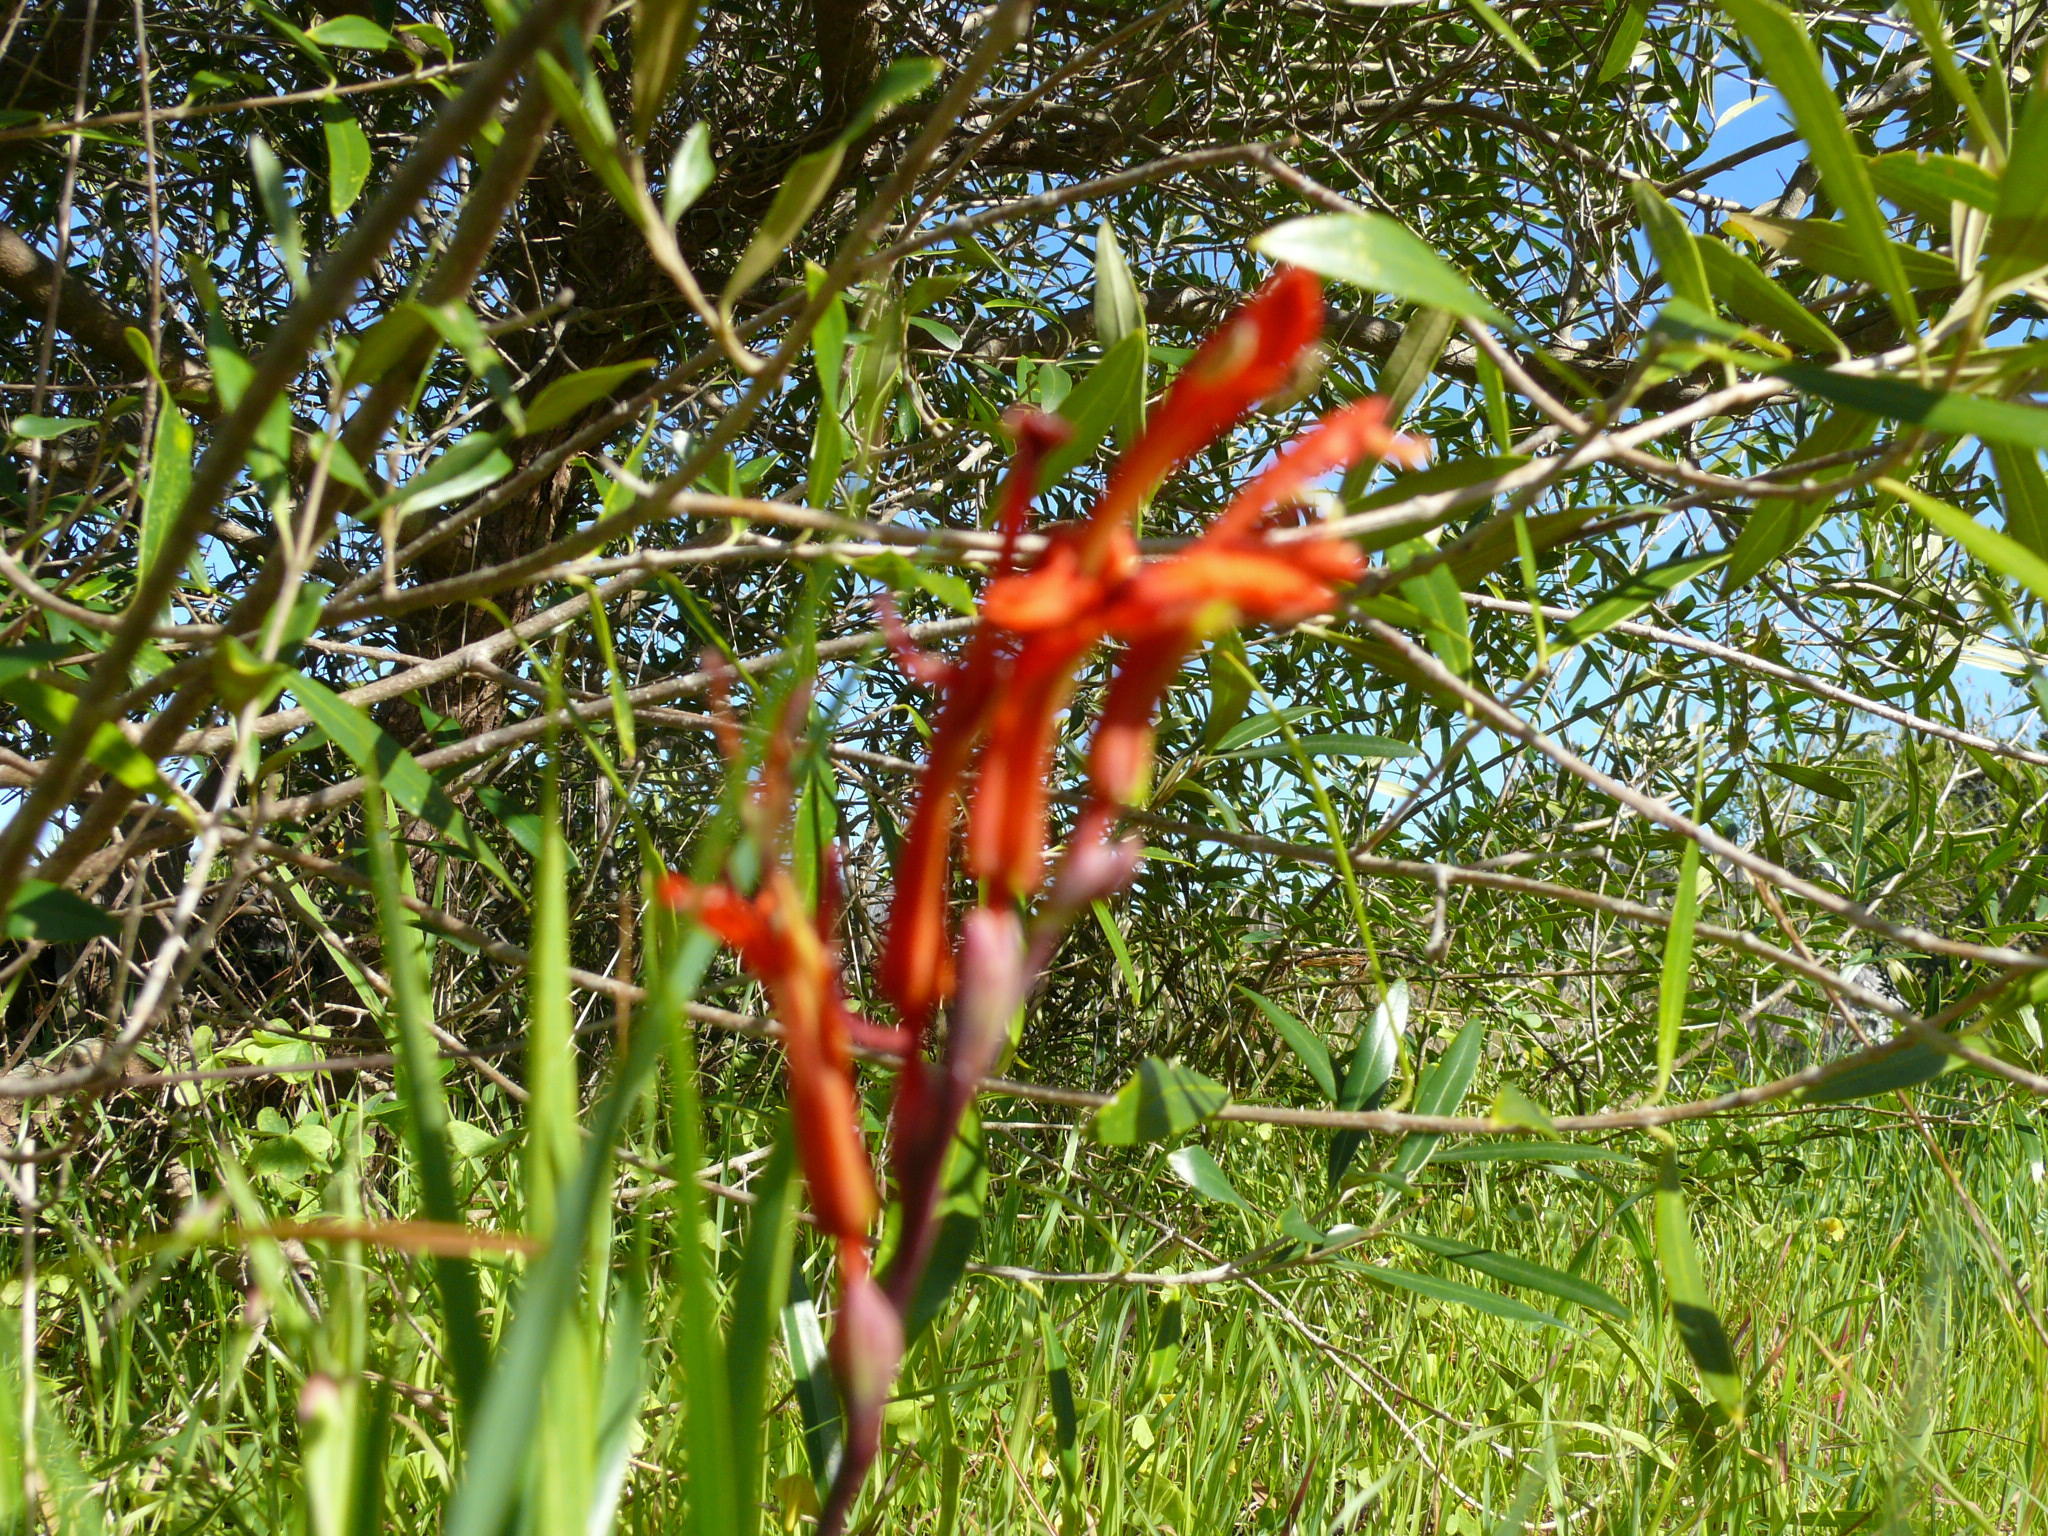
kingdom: Plantae
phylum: Tracheophyta
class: Liliopsida
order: Asparagales
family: Iridaceae
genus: Chasmanthe
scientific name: Chasmanthe aethiopica
